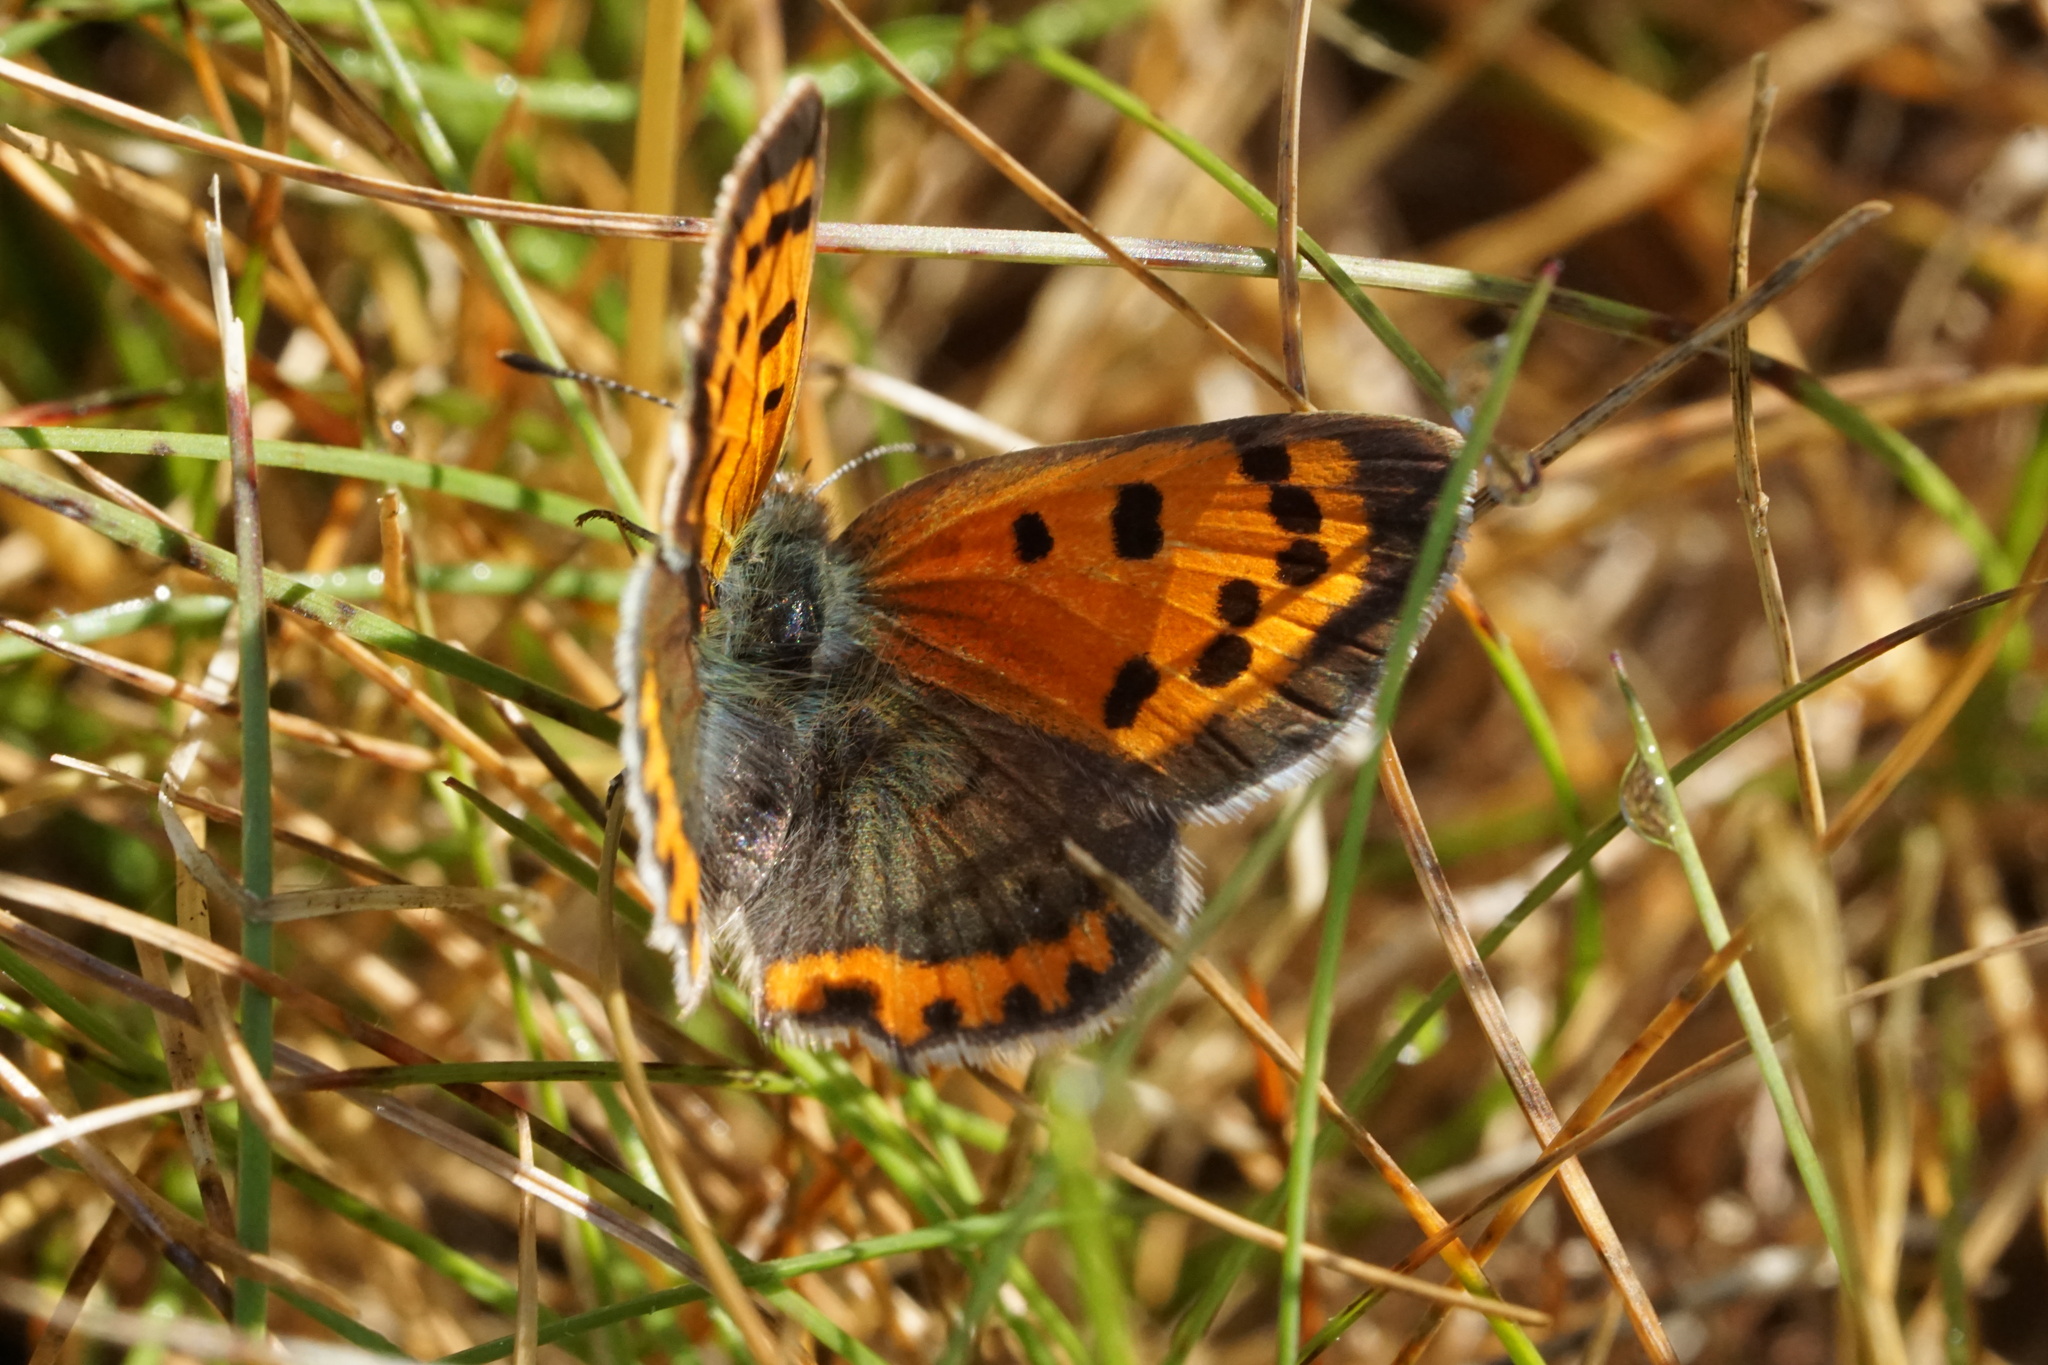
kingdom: Animalia
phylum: Arthropoda
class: Insecta
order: Lepidoptera
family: Lycaenidae
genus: Lycaena
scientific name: Lycaena hypophlaeas
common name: American copper
